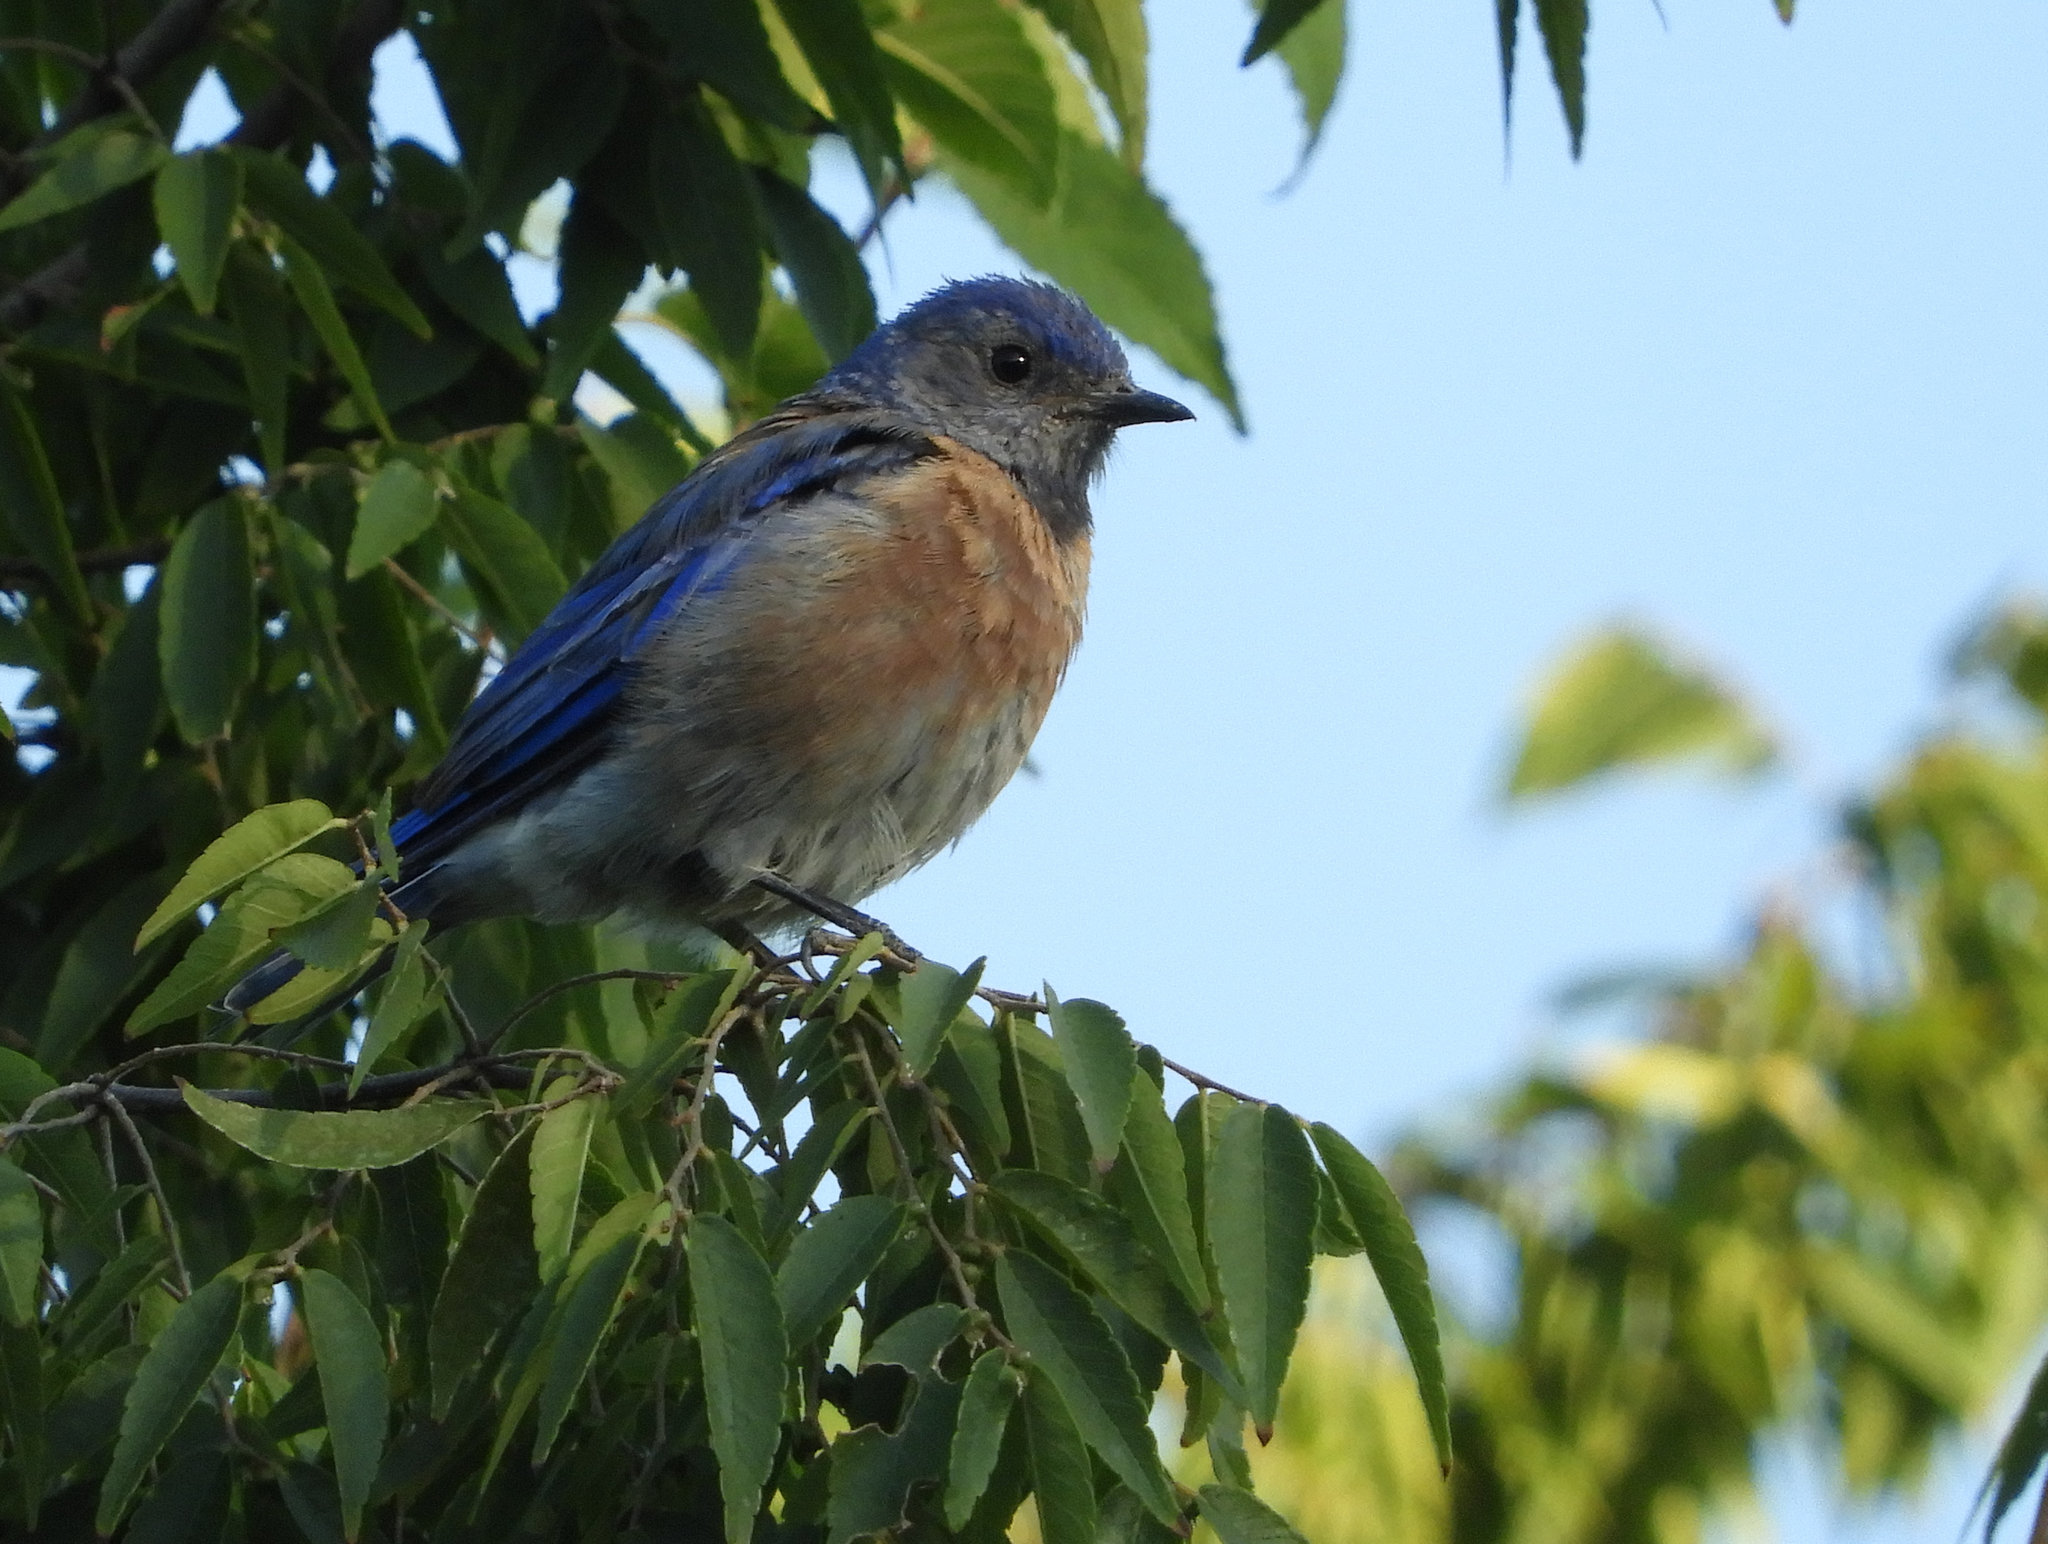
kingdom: Animalia
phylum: Chordata
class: Aves
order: Passeriformes
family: Turdidae
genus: Sialia
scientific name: Sialia mexicana
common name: Western bluebird
